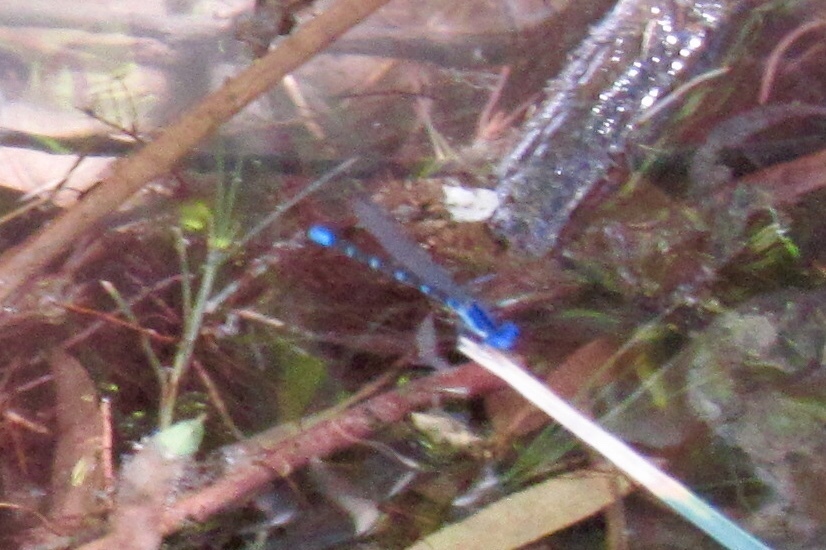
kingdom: Animalia
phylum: Arthropoda
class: Insecta
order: Odonata
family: Coenagrionidae
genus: Argia
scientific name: Argia sedula
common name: Blue-ringed dancer
